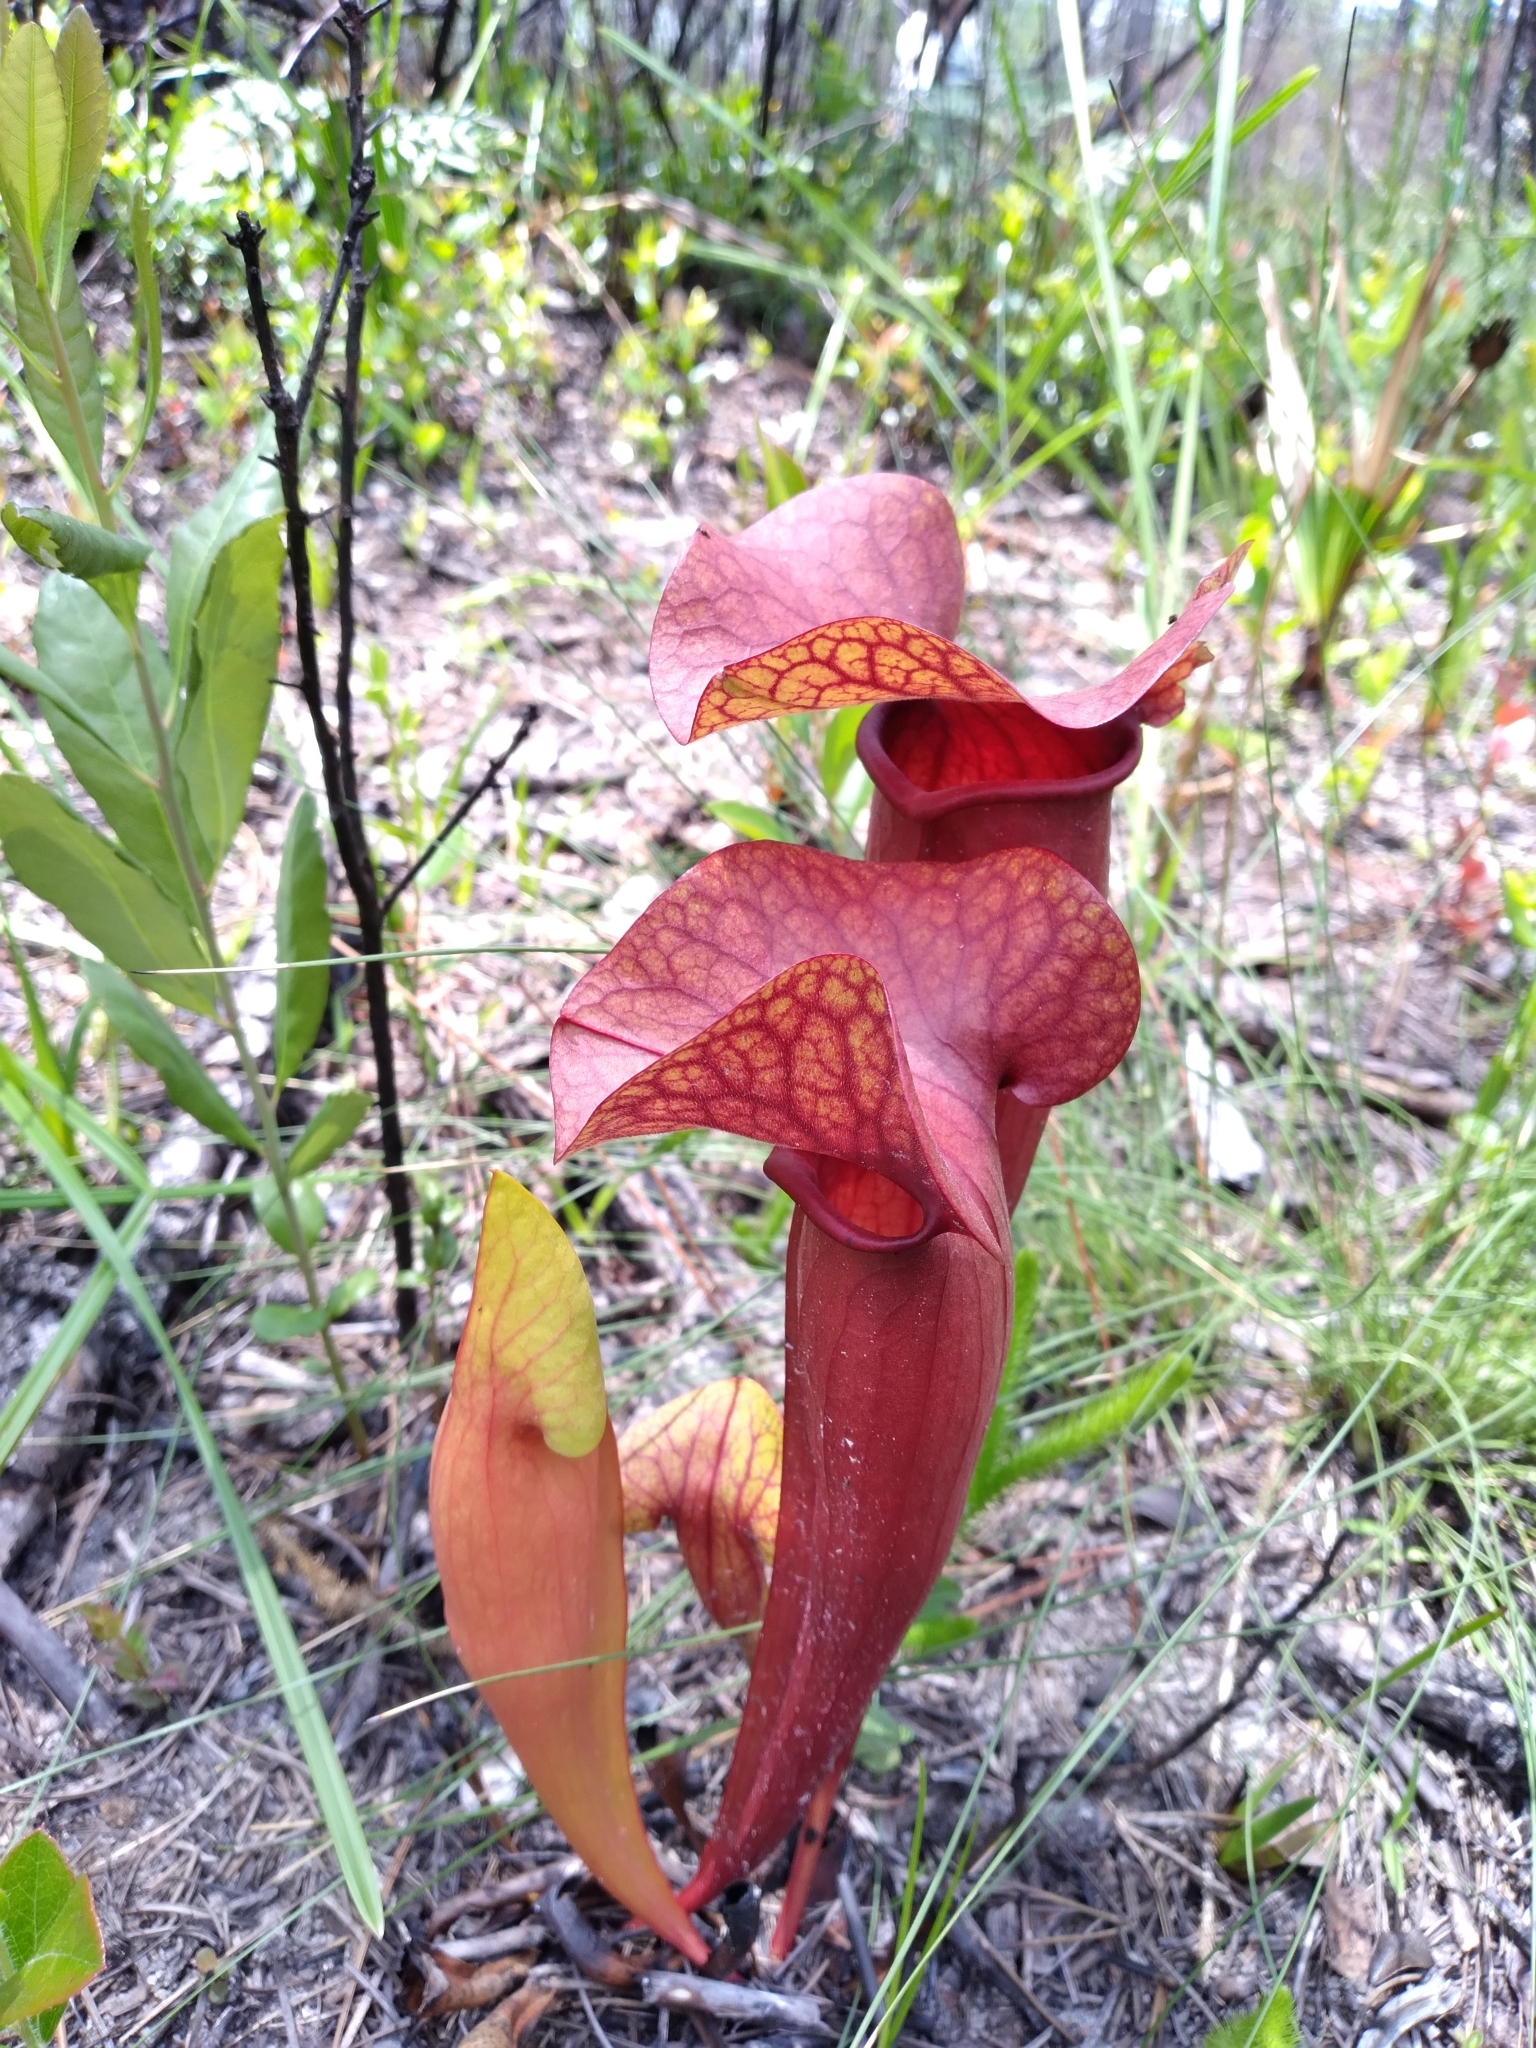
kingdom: Plantae
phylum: Tracheophyta
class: Magnoliopsida
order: Ericales
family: Sarraceniaceae
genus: Sarracenia
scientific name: Sarracenia naczii
